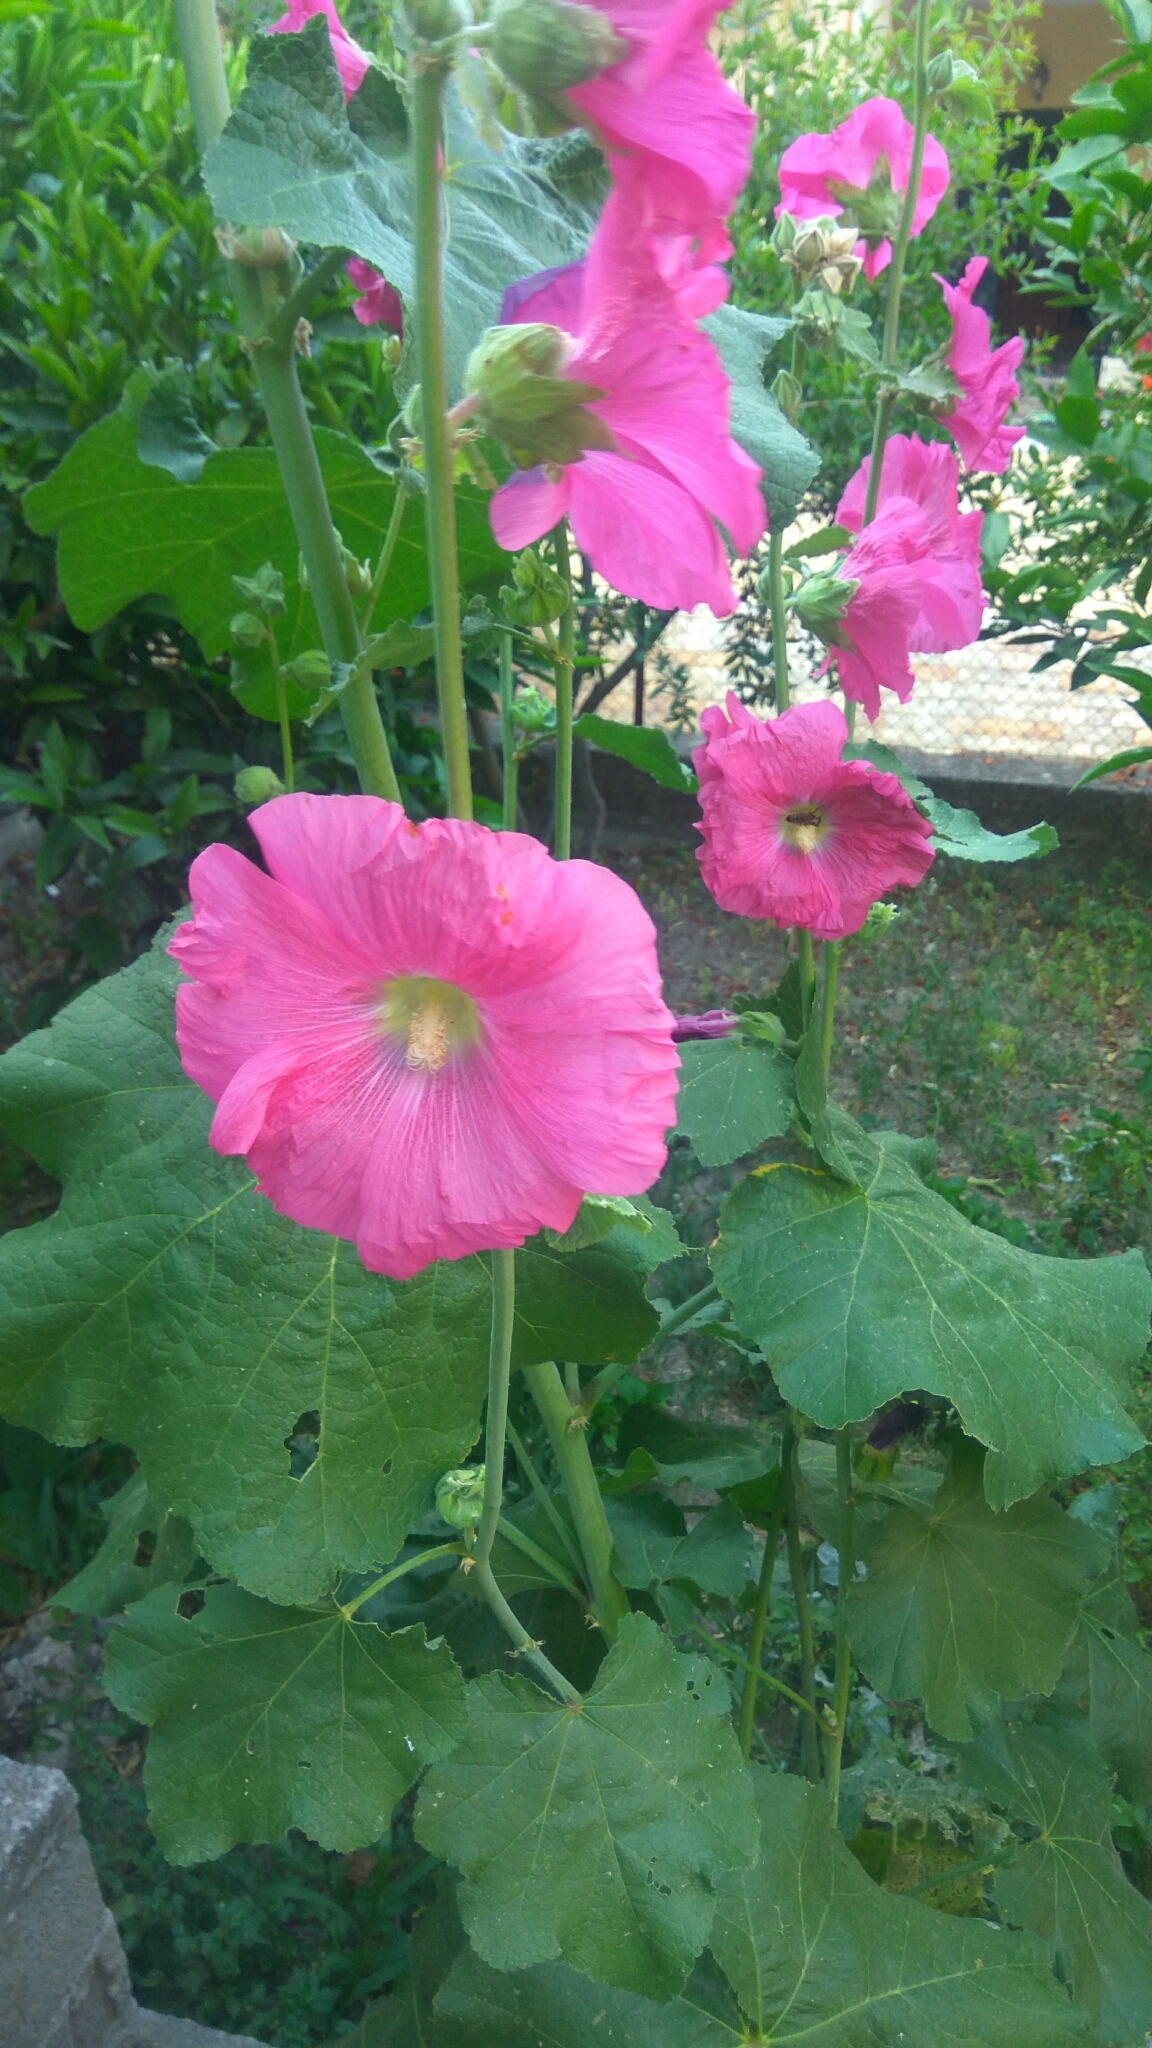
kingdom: Plantae
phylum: Tracheophyta
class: Magnoliopsida
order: Malvales
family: Malvaceae
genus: Alcea
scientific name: Alcea rosea
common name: Hollyhock
